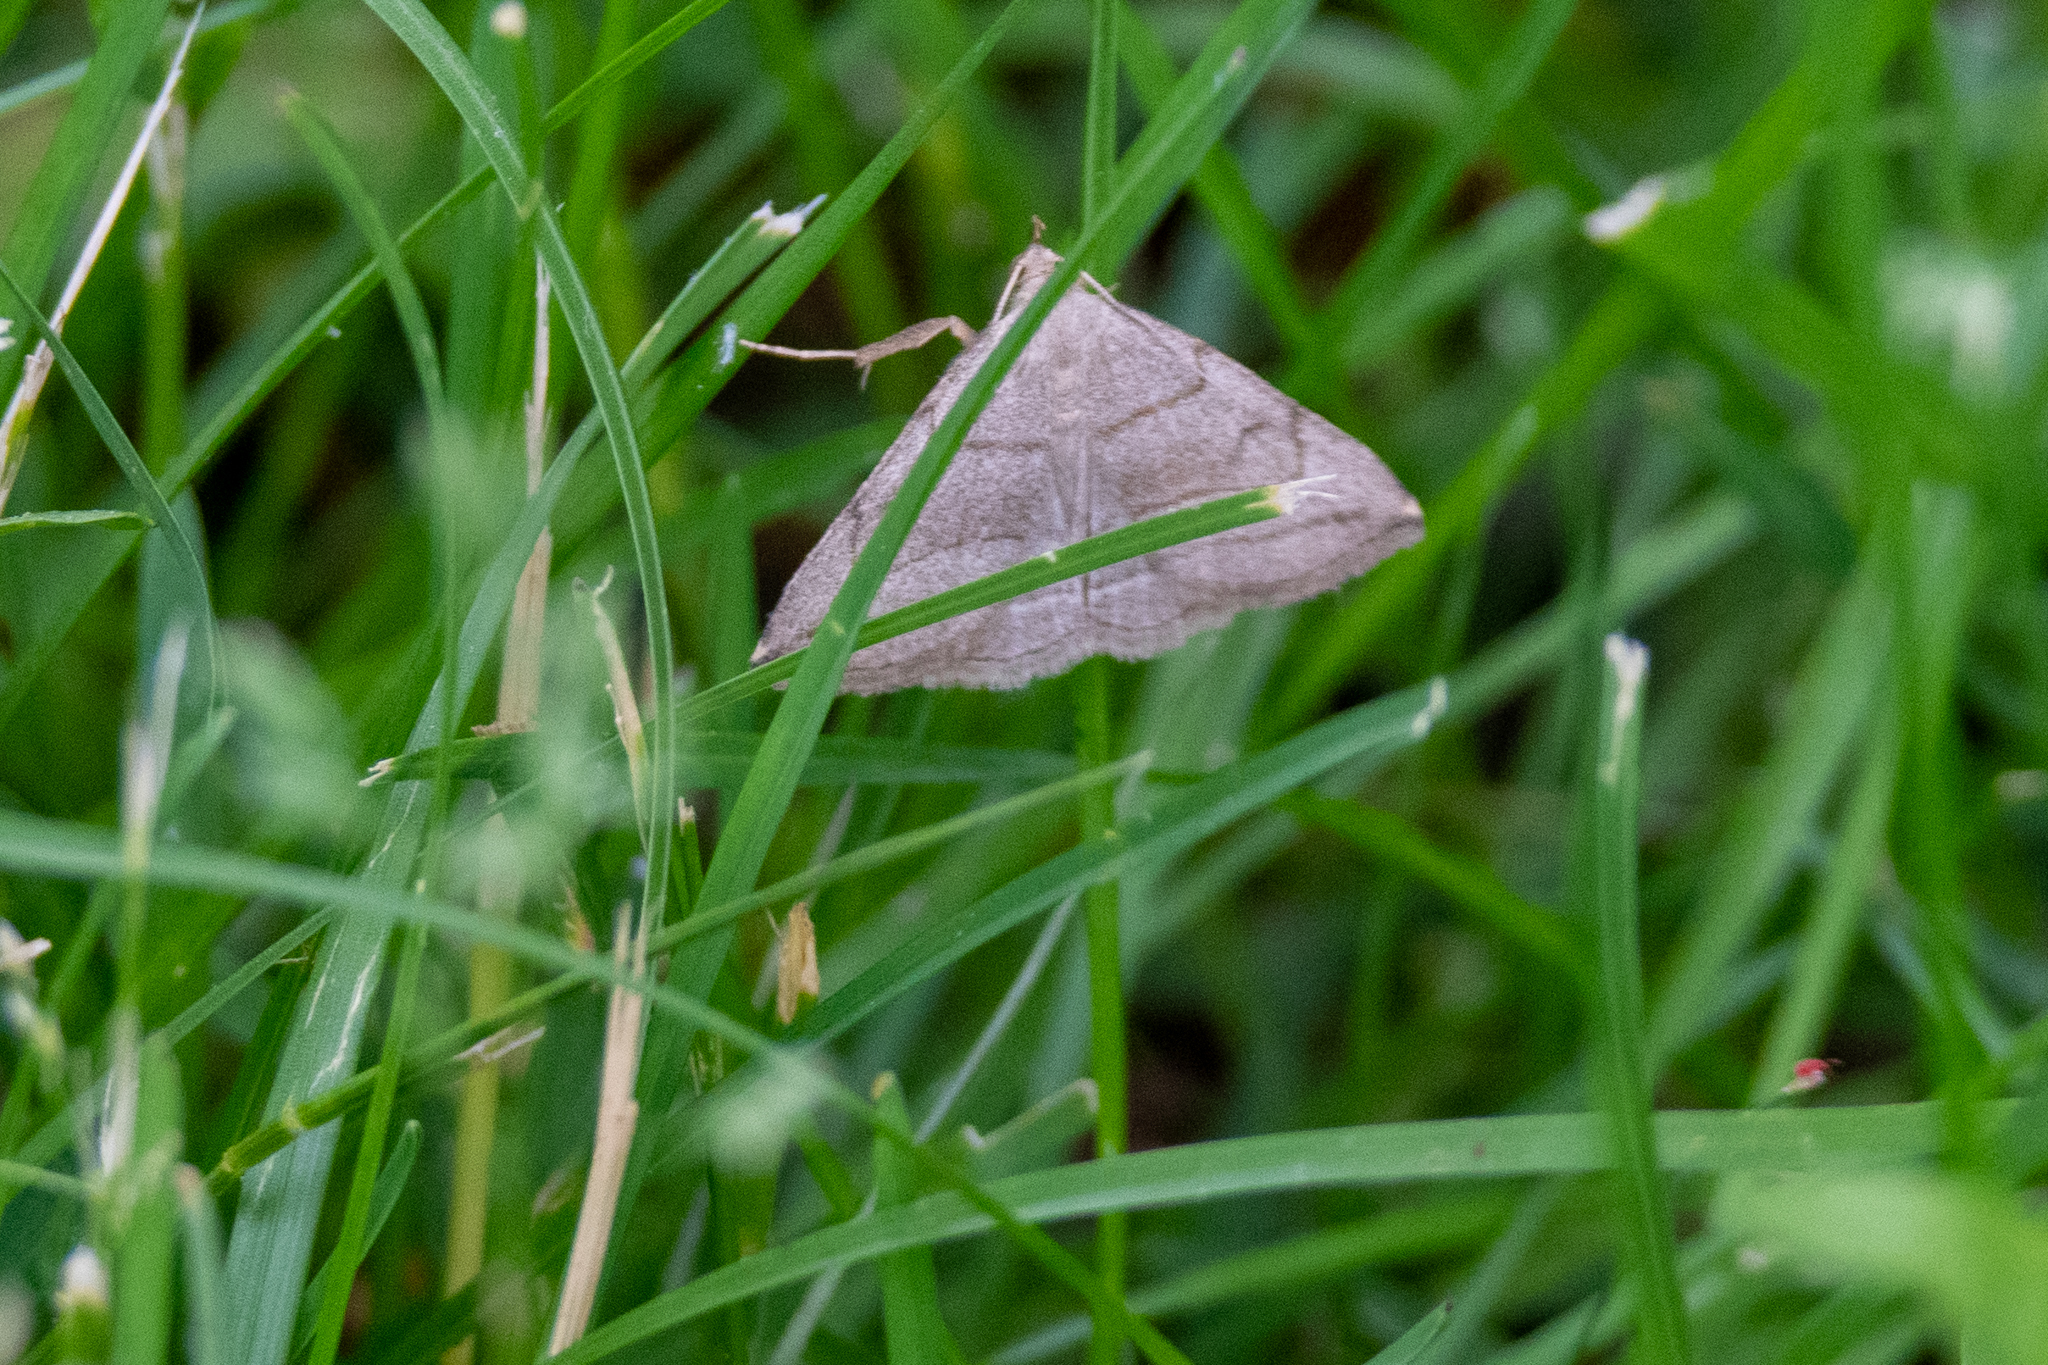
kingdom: Animalia
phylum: Arthropoda
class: Insecta
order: Lepidoptera
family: Erebidae
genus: Zanclognatha
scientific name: Zanclognatha pedipilalis
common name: Grayish fan-foot
